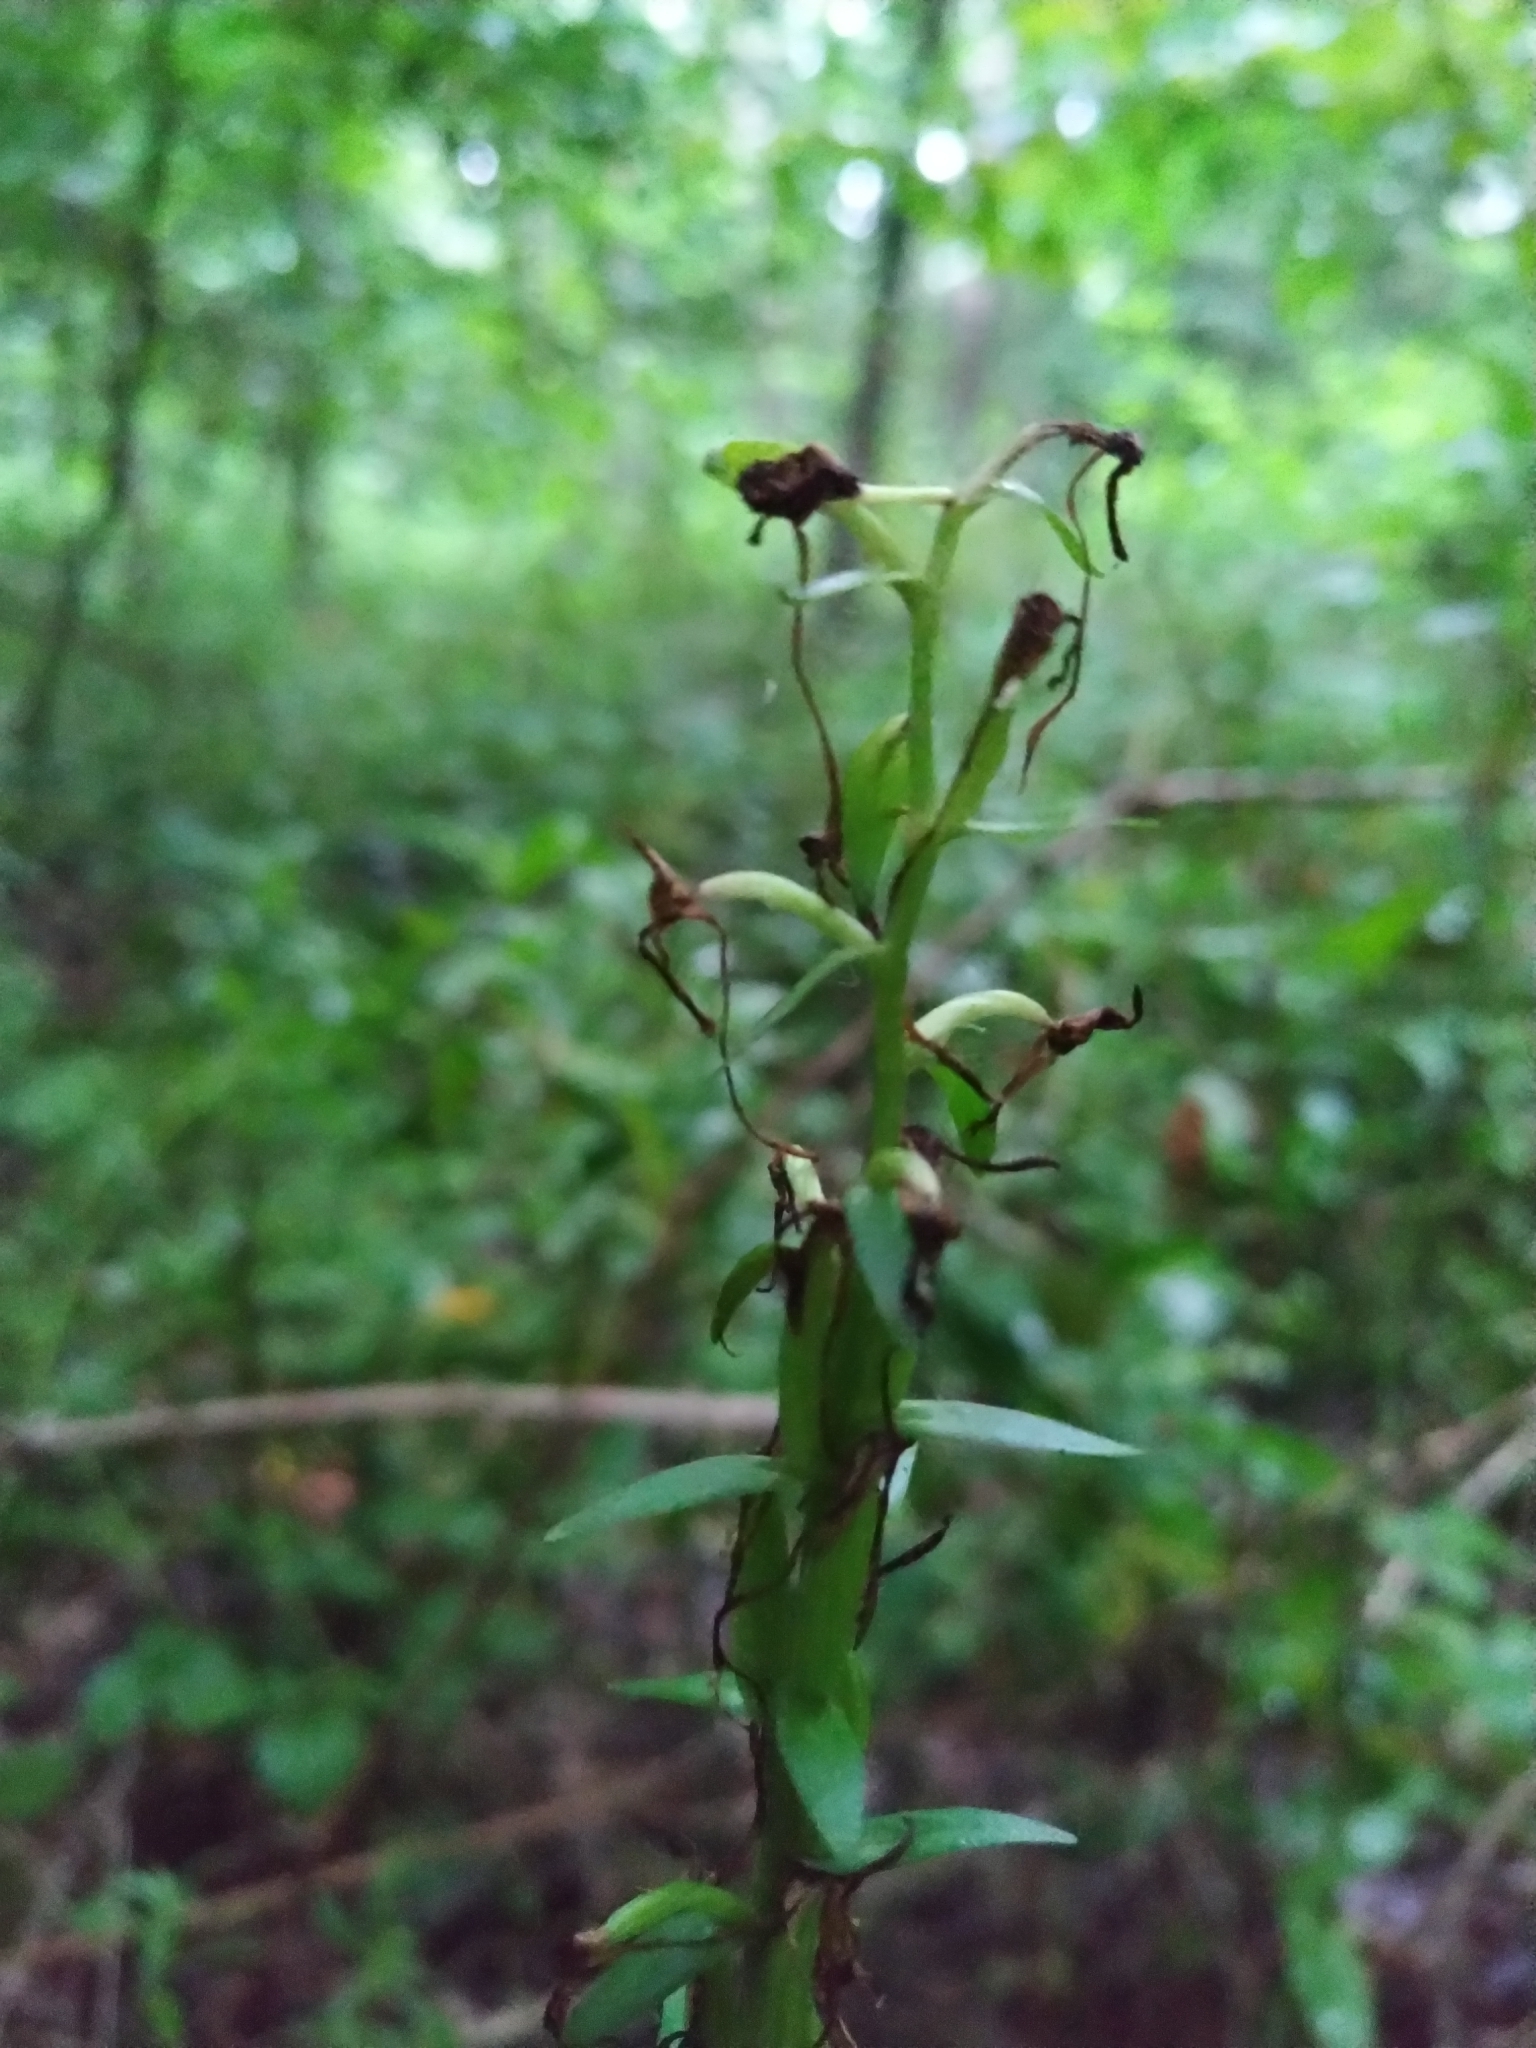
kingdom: Plantae
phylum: Tracheophyta
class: Liliopsida
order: Asparagales
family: Orchidaceae
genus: Platanthera
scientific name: Platanthera bifolia
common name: Lesser butterfly-orchid
